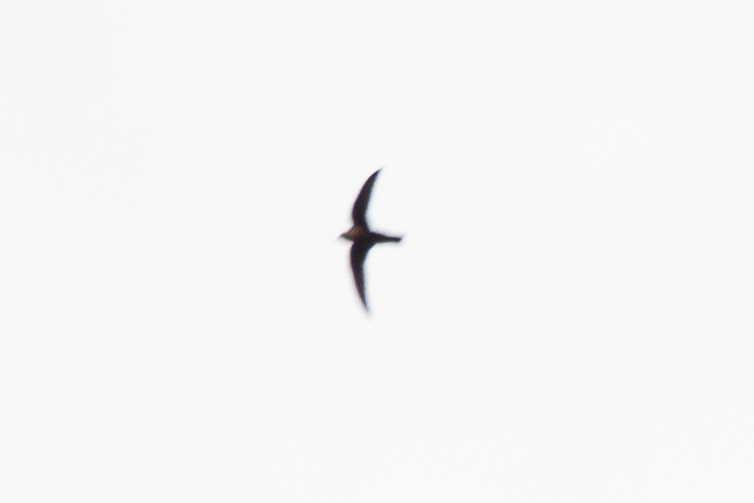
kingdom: Animalia
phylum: Chordata
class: Aves
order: Apodiformes
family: Apodidae
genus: Cypseloides
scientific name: Cypseloides niger
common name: Black swift
